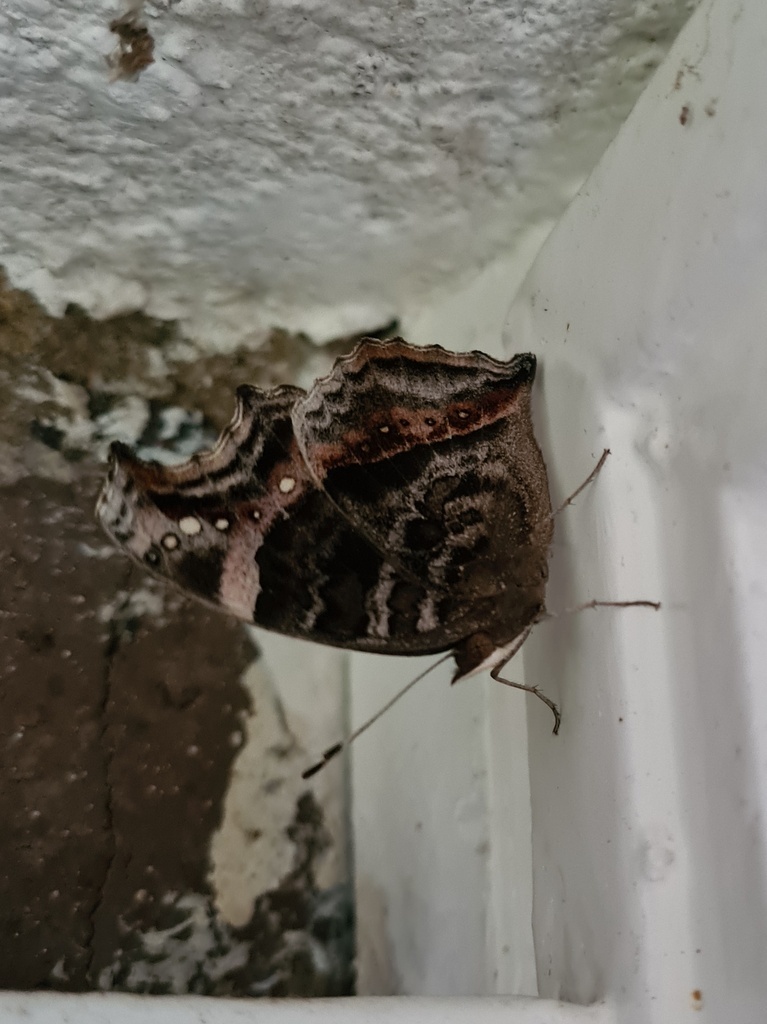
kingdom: Animalia
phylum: Arthropoda
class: Insecta
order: Lepidoptera
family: Nymphalidae
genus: Junonia
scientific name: Junonia archesia
